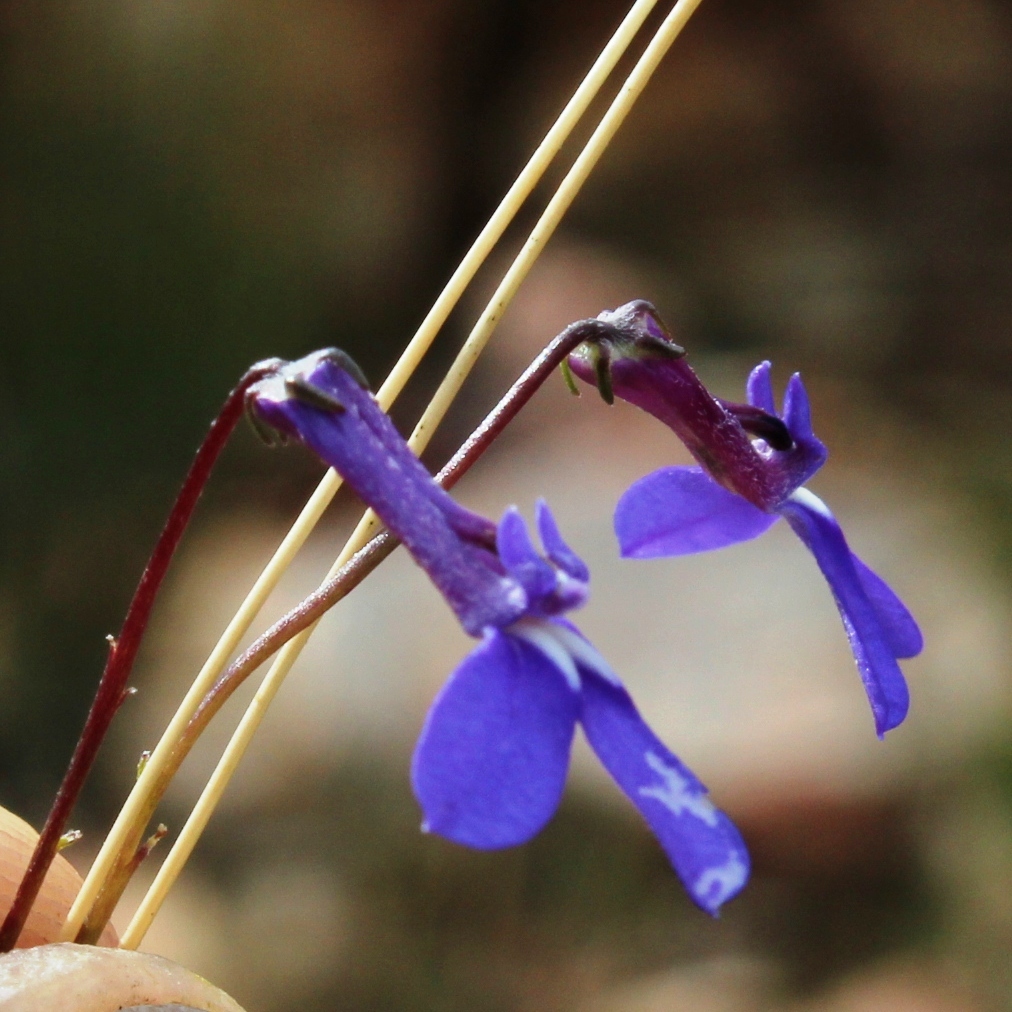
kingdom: Plantae
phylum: Tracheophyta
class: Magnoliopsida
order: Asterales
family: Campanulaceae
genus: Lobelia
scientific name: Lobelia tomentosa
